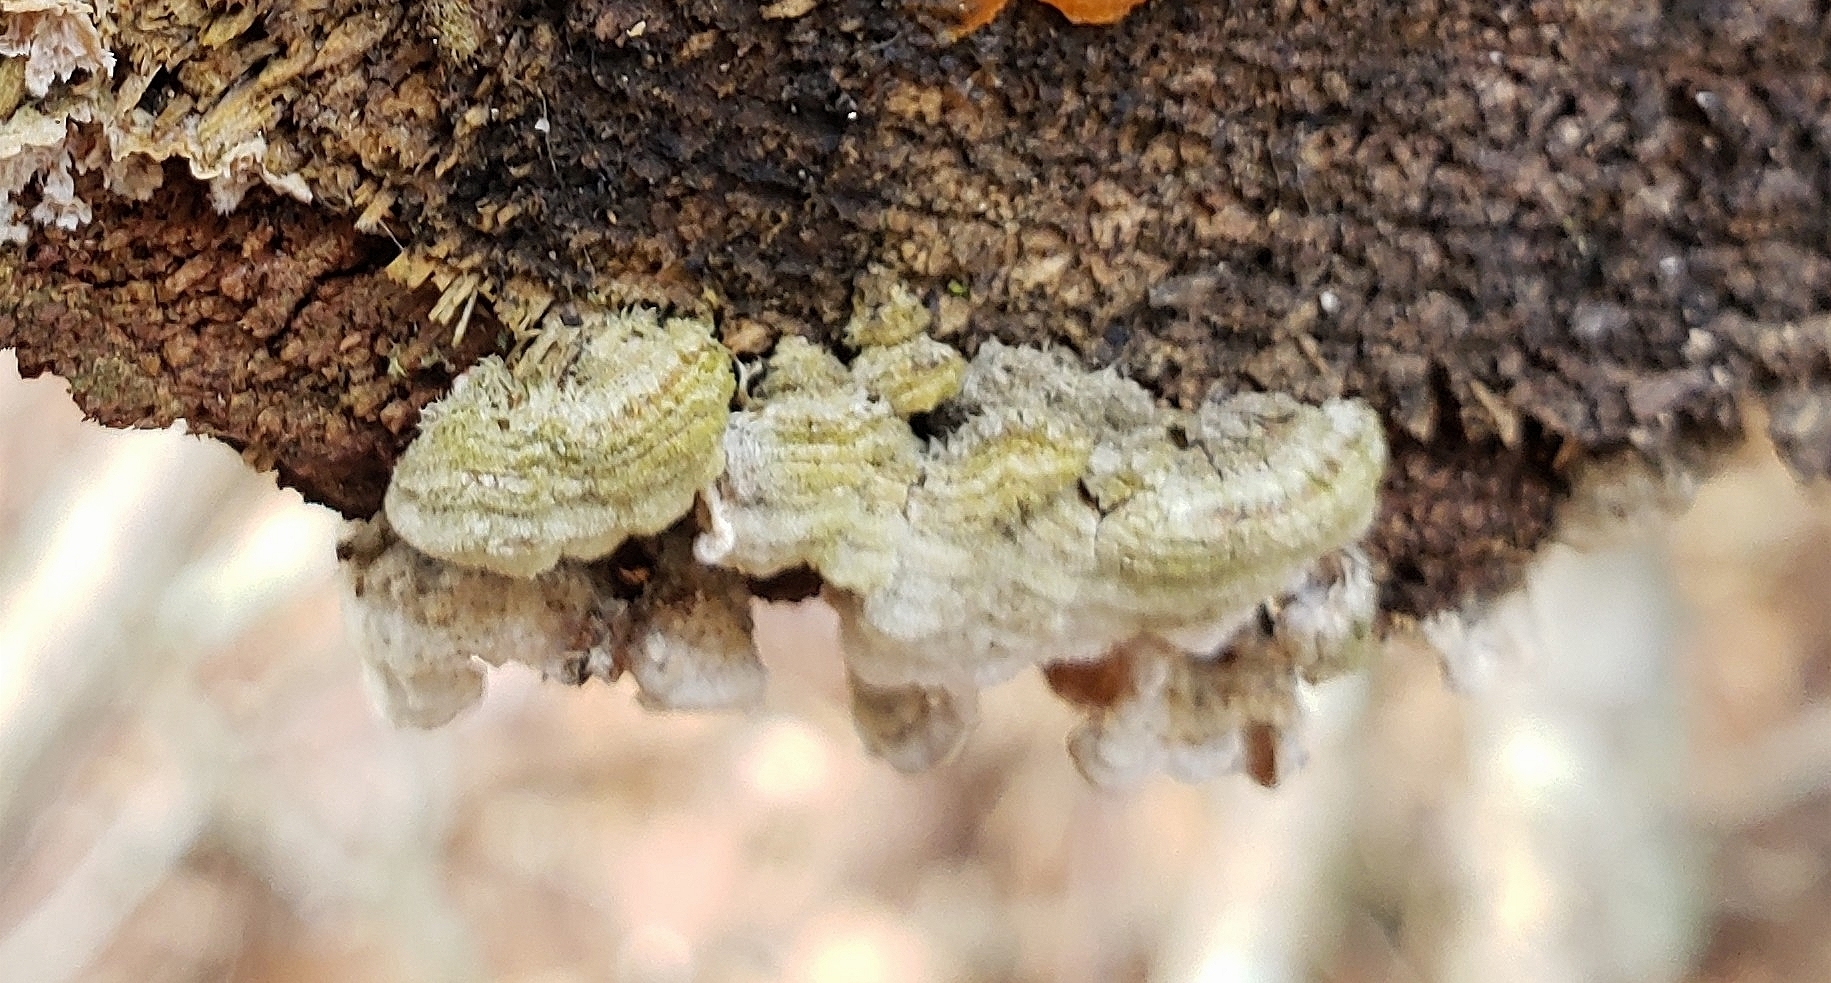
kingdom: Fungi
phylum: Basidiomycota
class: Agaricomycetes
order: Hymenochaetales
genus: Trichaptum
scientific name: Trichaptum abietinum
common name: Purplepore bracket
